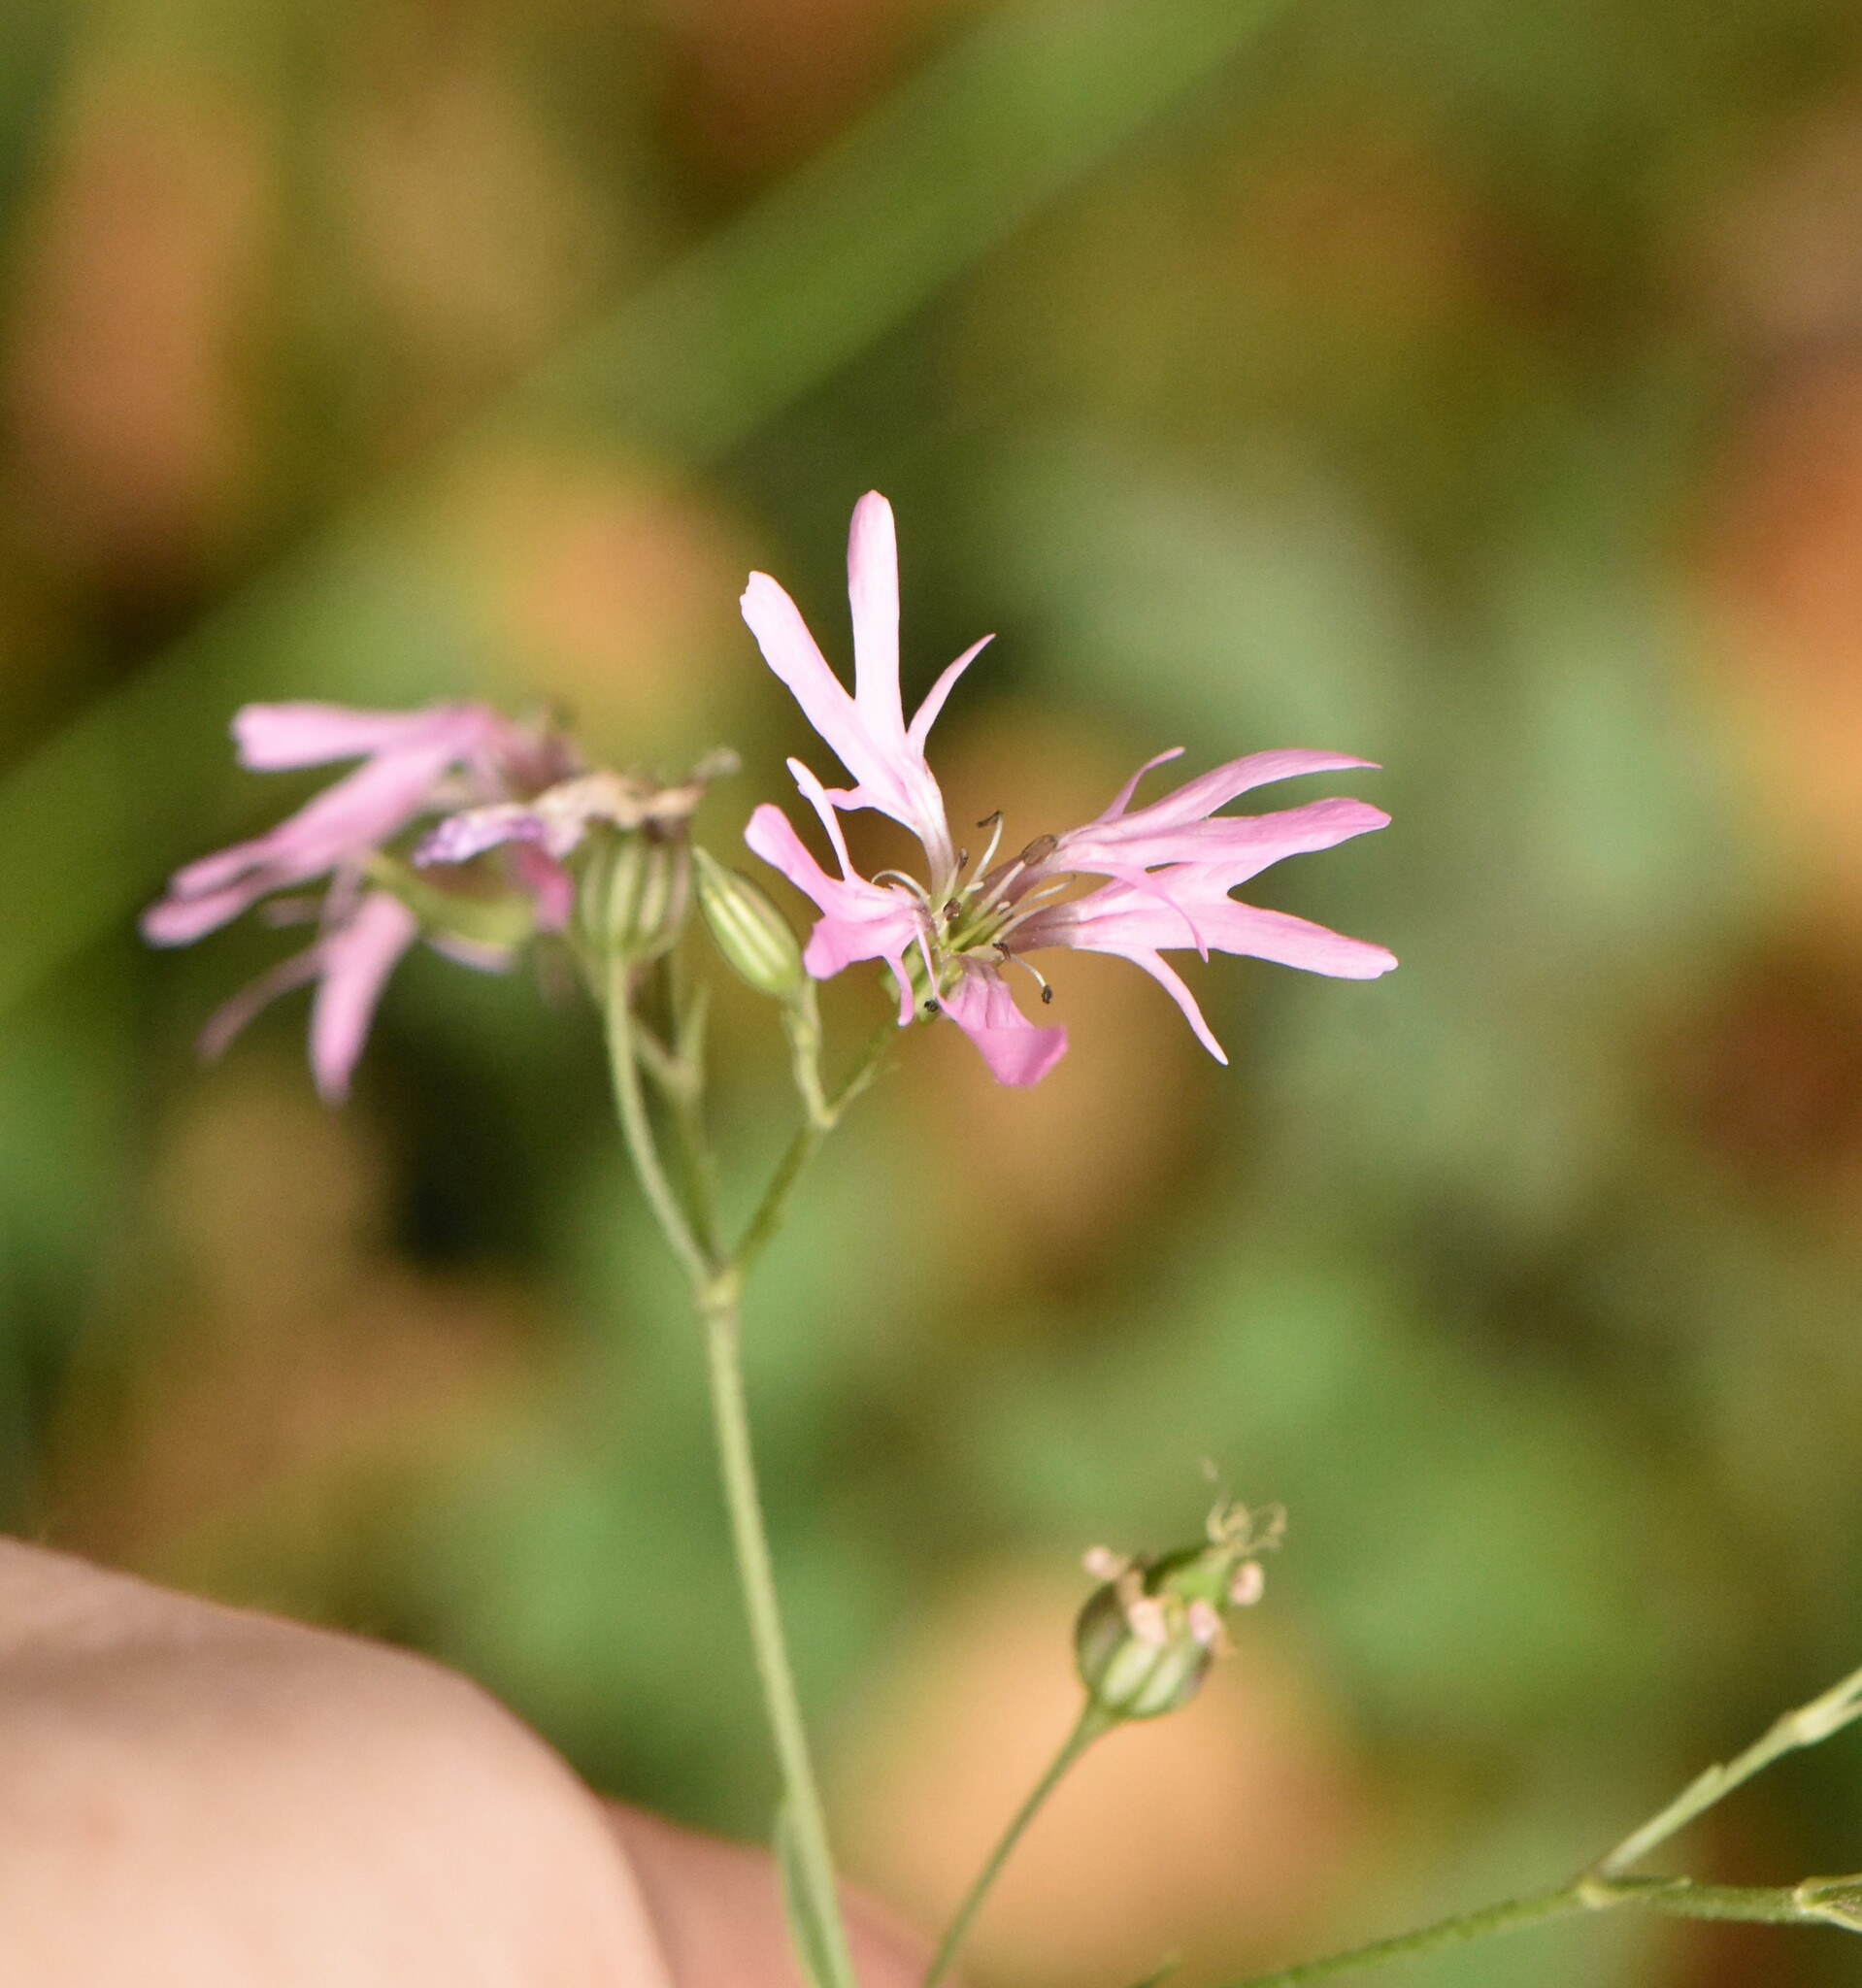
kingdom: Plantae
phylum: Tracheophyta
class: Magnoliopsida
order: Caryophyllales
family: Caryophyllaceae
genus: Silene
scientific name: Silene flos-cuculi
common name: Ragged-robin
